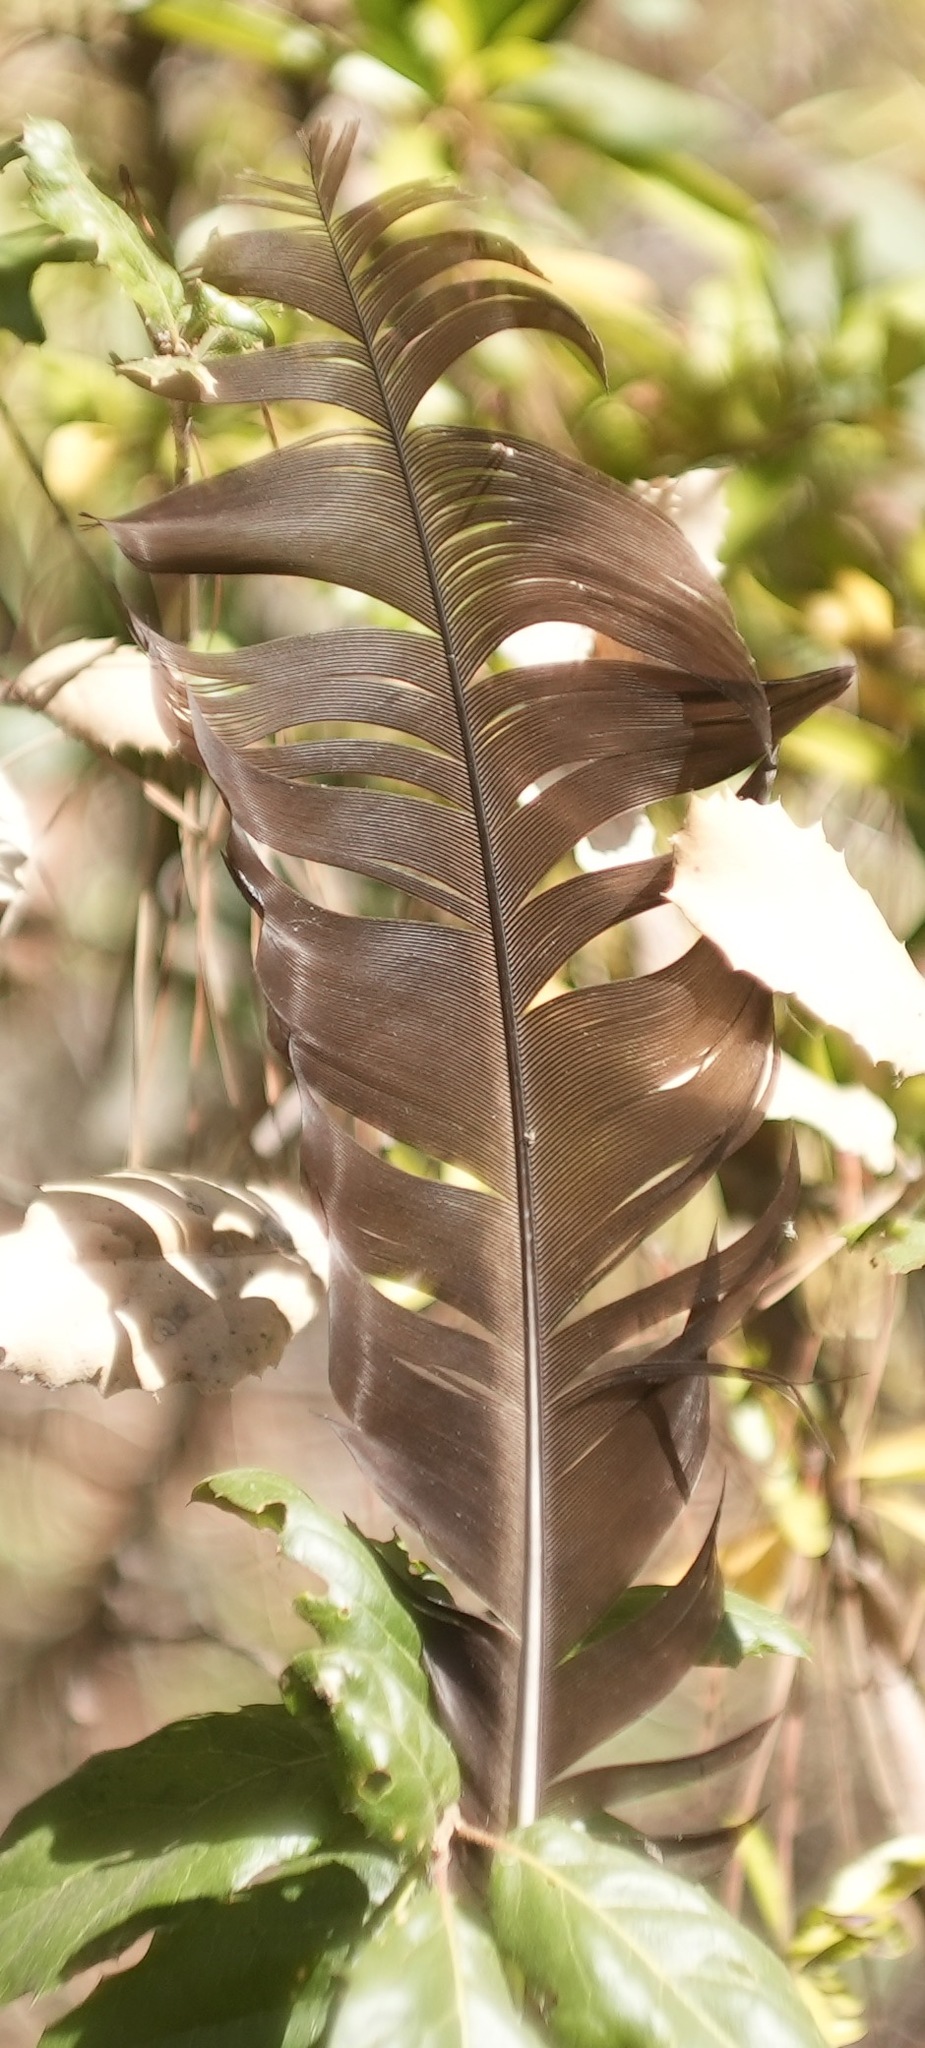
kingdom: Animalia
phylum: Chordata
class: Aves
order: Accipitriformes
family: Cathartidae
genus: Cathartes
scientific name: Cathartes aura
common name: Turkey vulture
